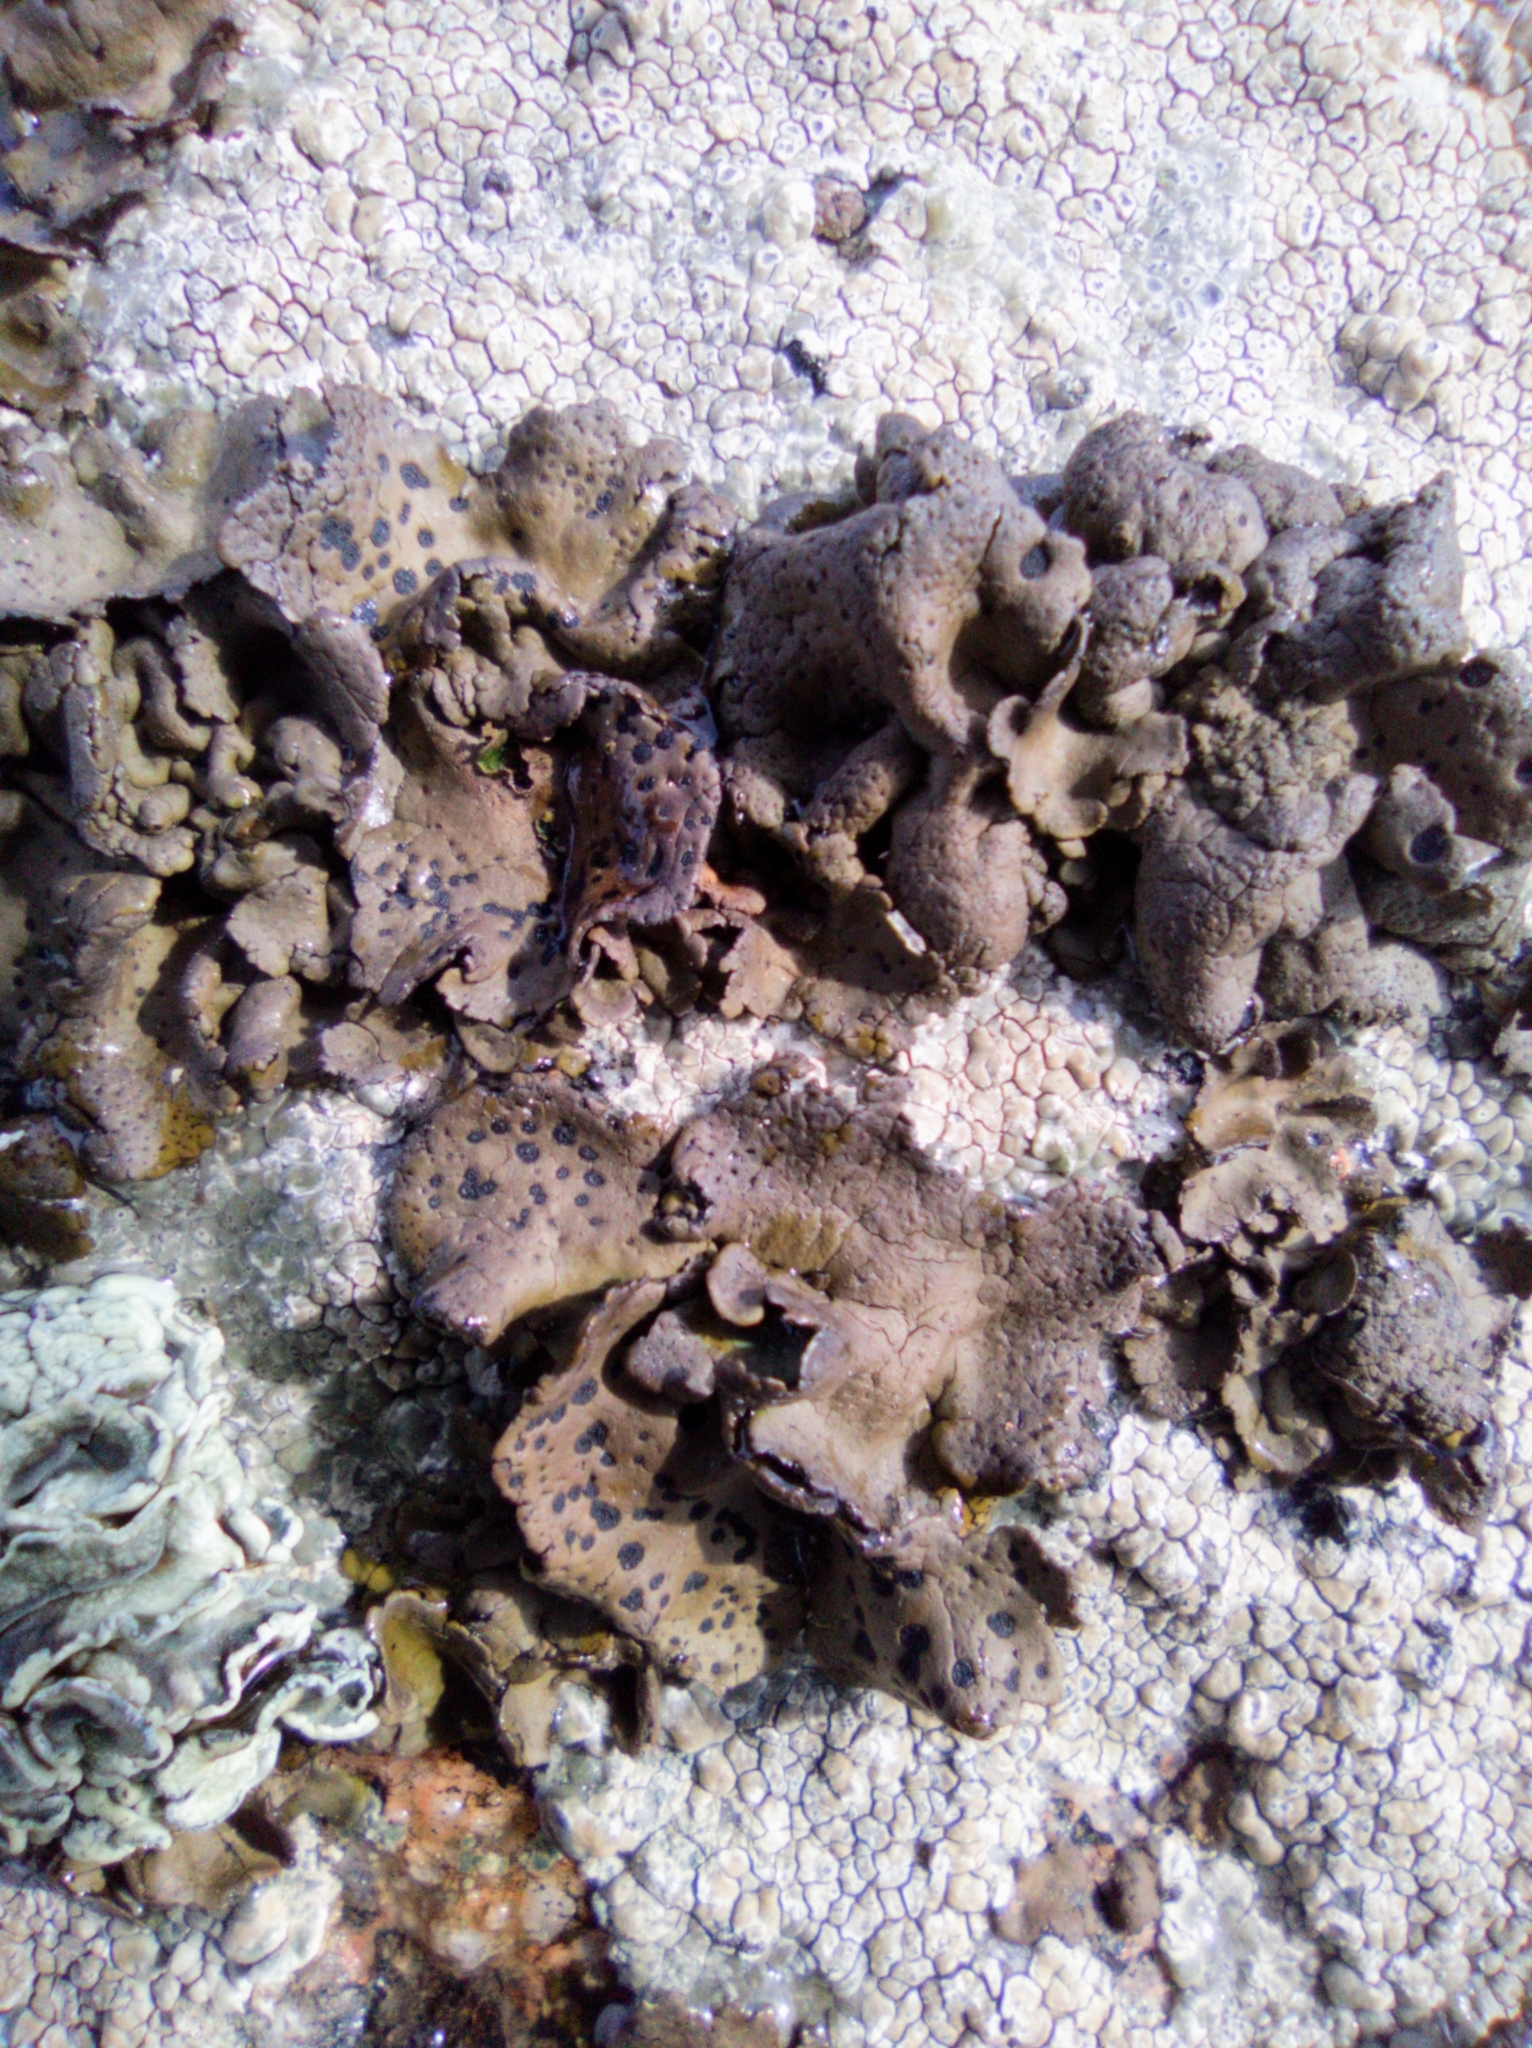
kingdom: Fungi
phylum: Ascomycota
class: Lecanoromycetes
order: Umbilicariales
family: Umbilicariaceae
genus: Umbilicaria
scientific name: Umbilicaria phaea
